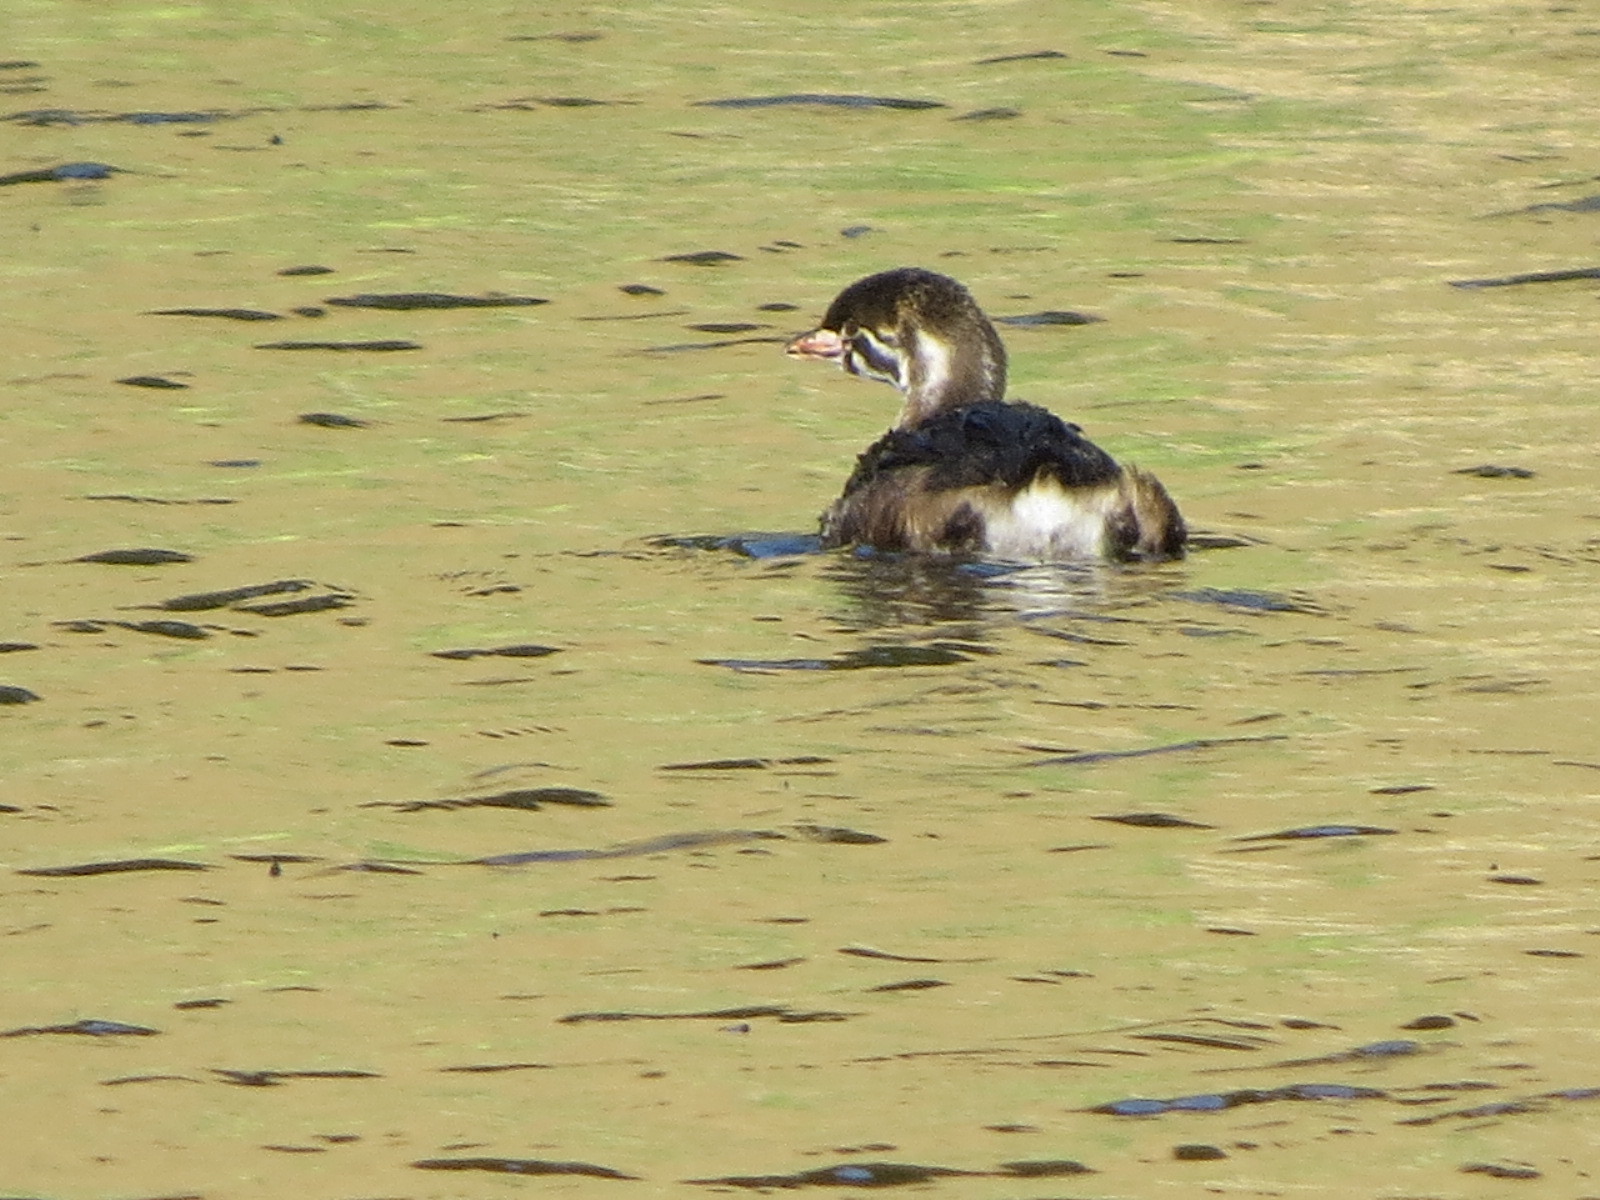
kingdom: Animalia
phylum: Chordata
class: Aves
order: Podicipediformes
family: Podicipedidae
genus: Podilymbus
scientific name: Podilymbus podiceps
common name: Pied-billed grebe
